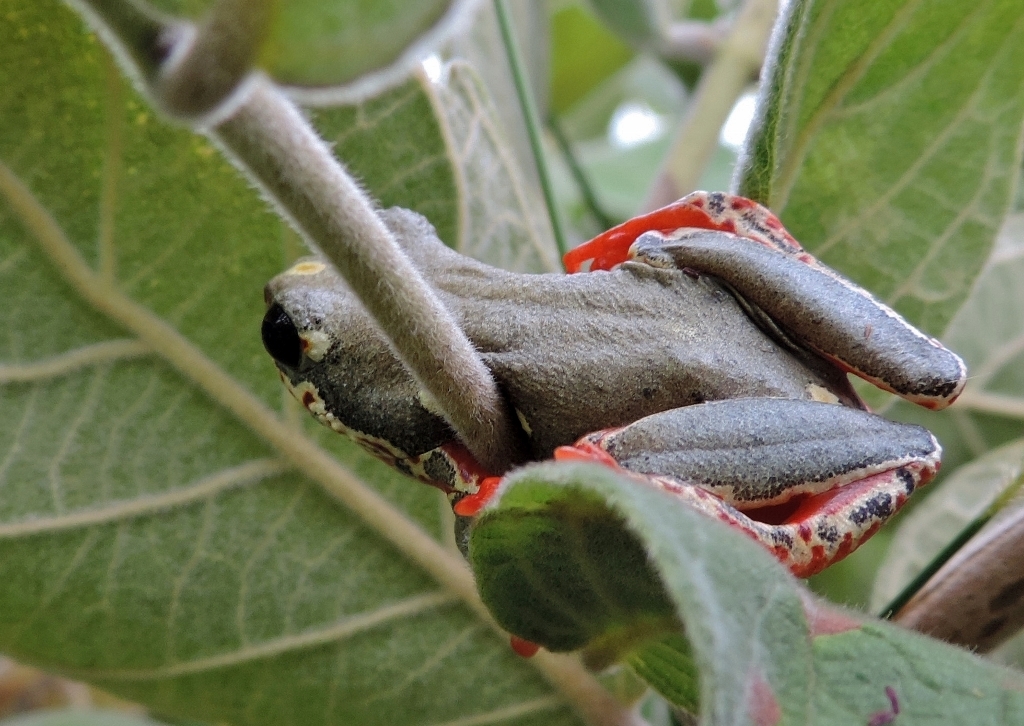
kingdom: Animalia
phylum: Chordata
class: Amphibia
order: Anura
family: Hyperoliidae
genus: Hyperolius
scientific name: Hyperolius marmoratus
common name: Painted reed frog
